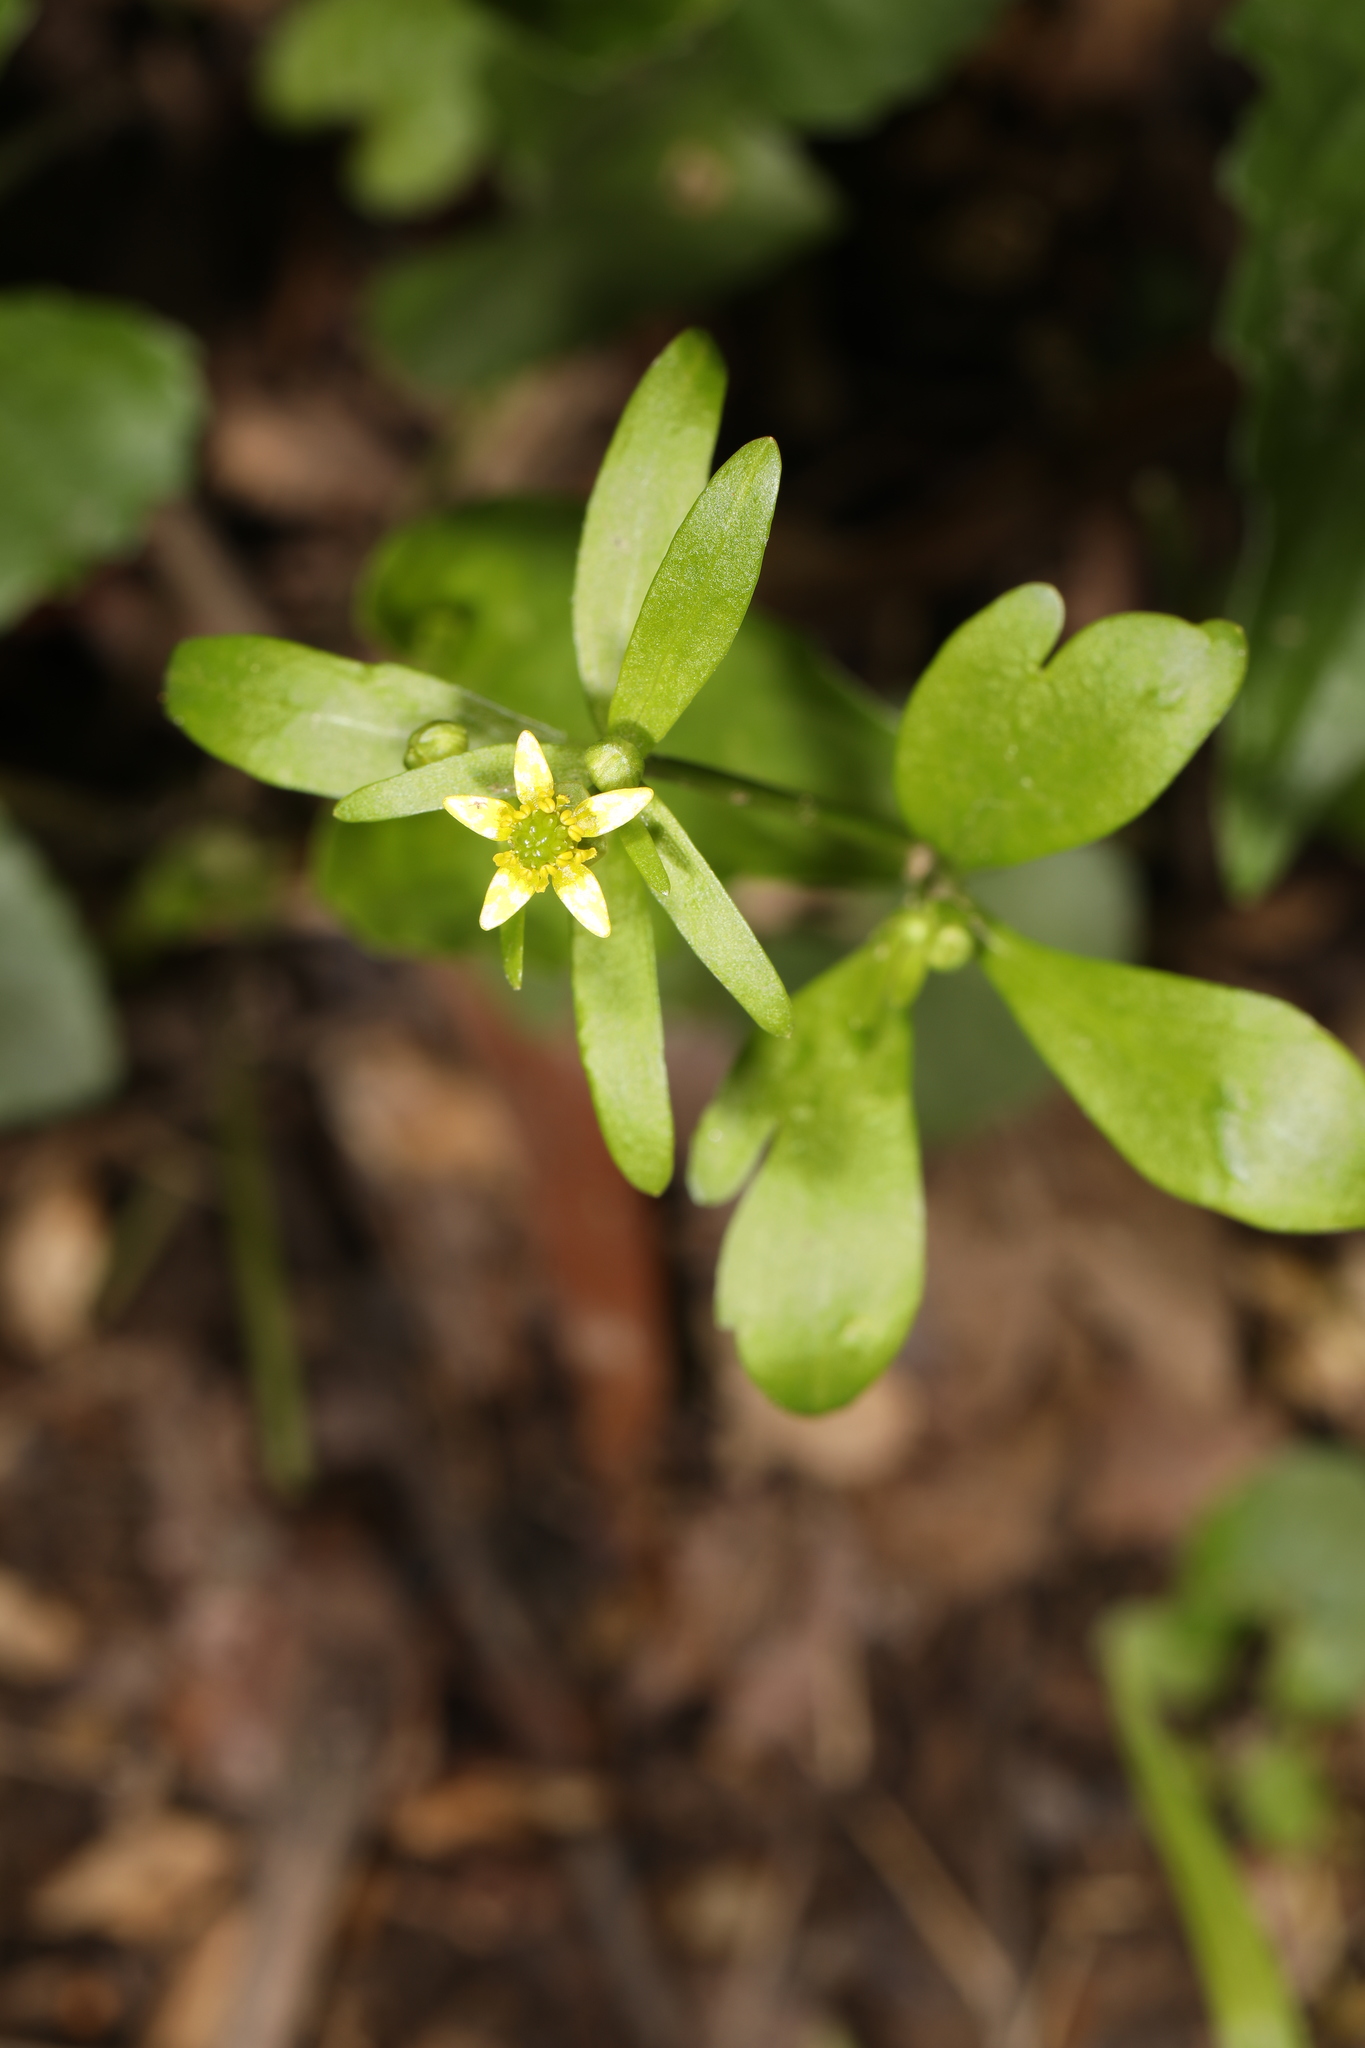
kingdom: Plantae
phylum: Tracheophyta
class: Magnoliopsida
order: Ranunculales
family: Ranunculaceae
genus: Ranunculus
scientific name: Ranunculus abortivus
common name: Early wood buttercup
